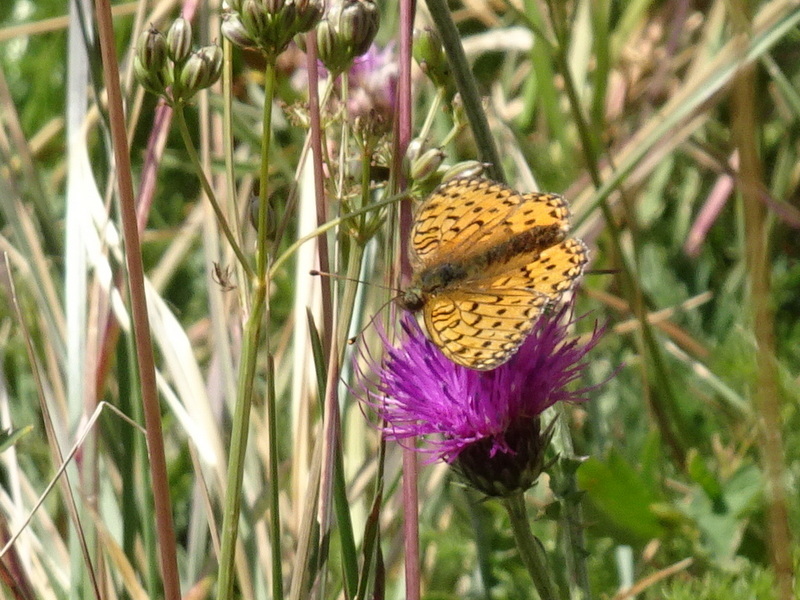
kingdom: Animalia
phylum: Arthropoda
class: Insecta
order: Lepidoptera
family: Nymphalidae
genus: Speyeria
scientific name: Speyeria aglaja
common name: Dark green fritillary
